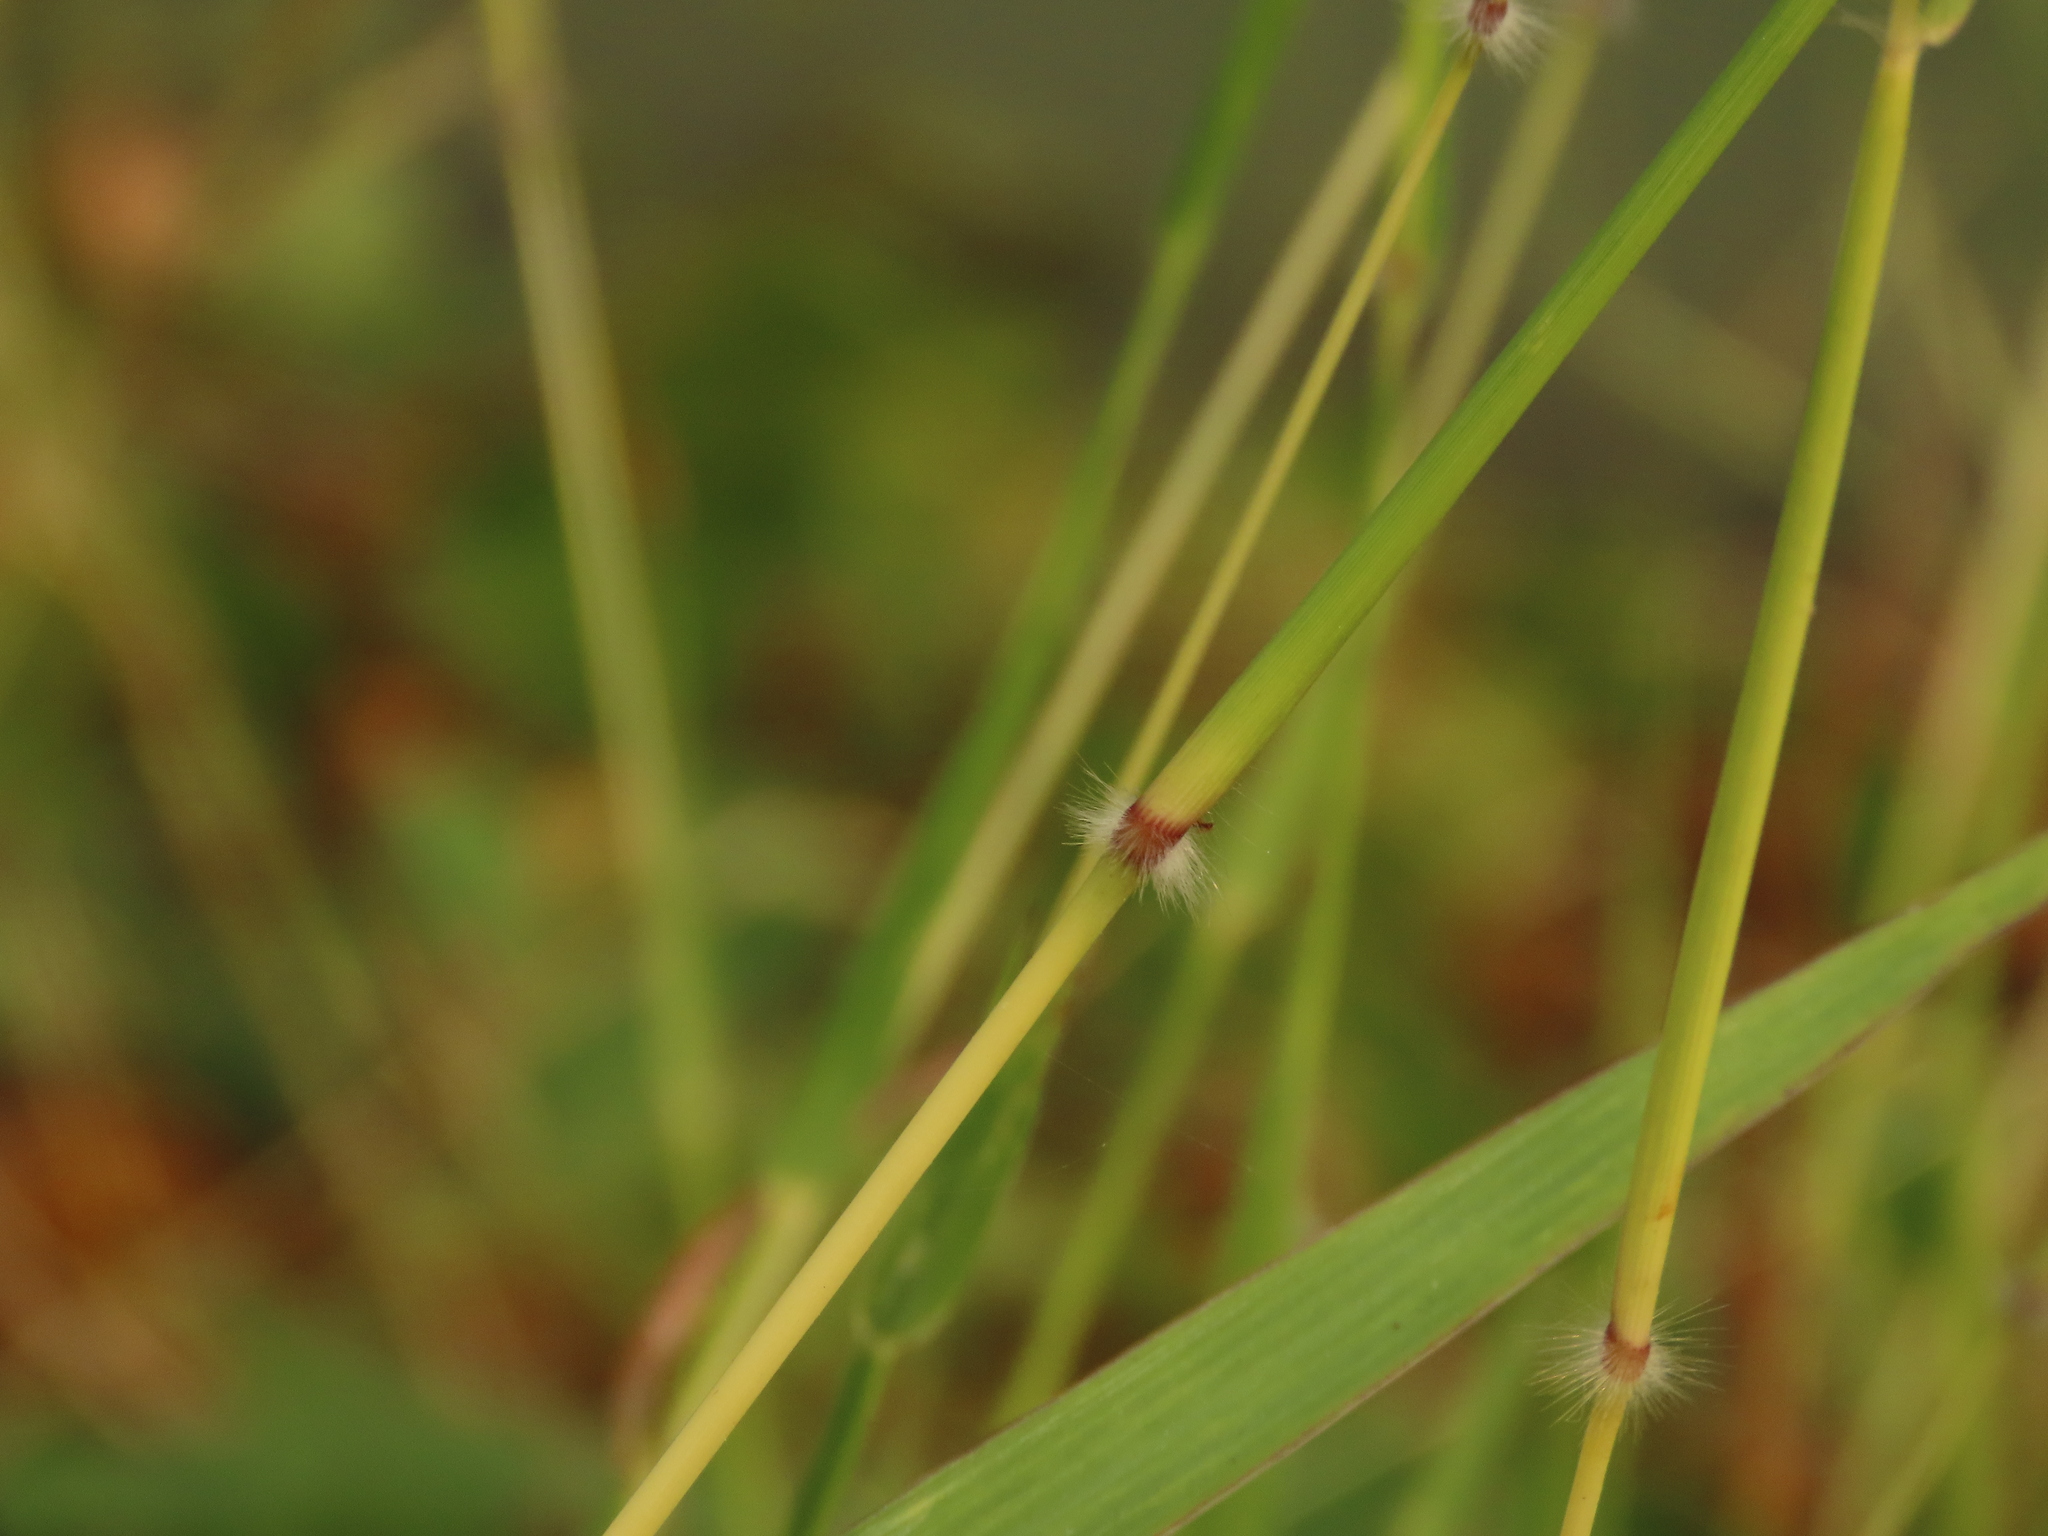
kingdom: Plantae
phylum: Tracheophyta
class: Liliopsida
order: Poales
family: Poaceae
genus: Dichanthium
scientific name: Dichanthium annulatum
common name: Kleberg's bluestem
